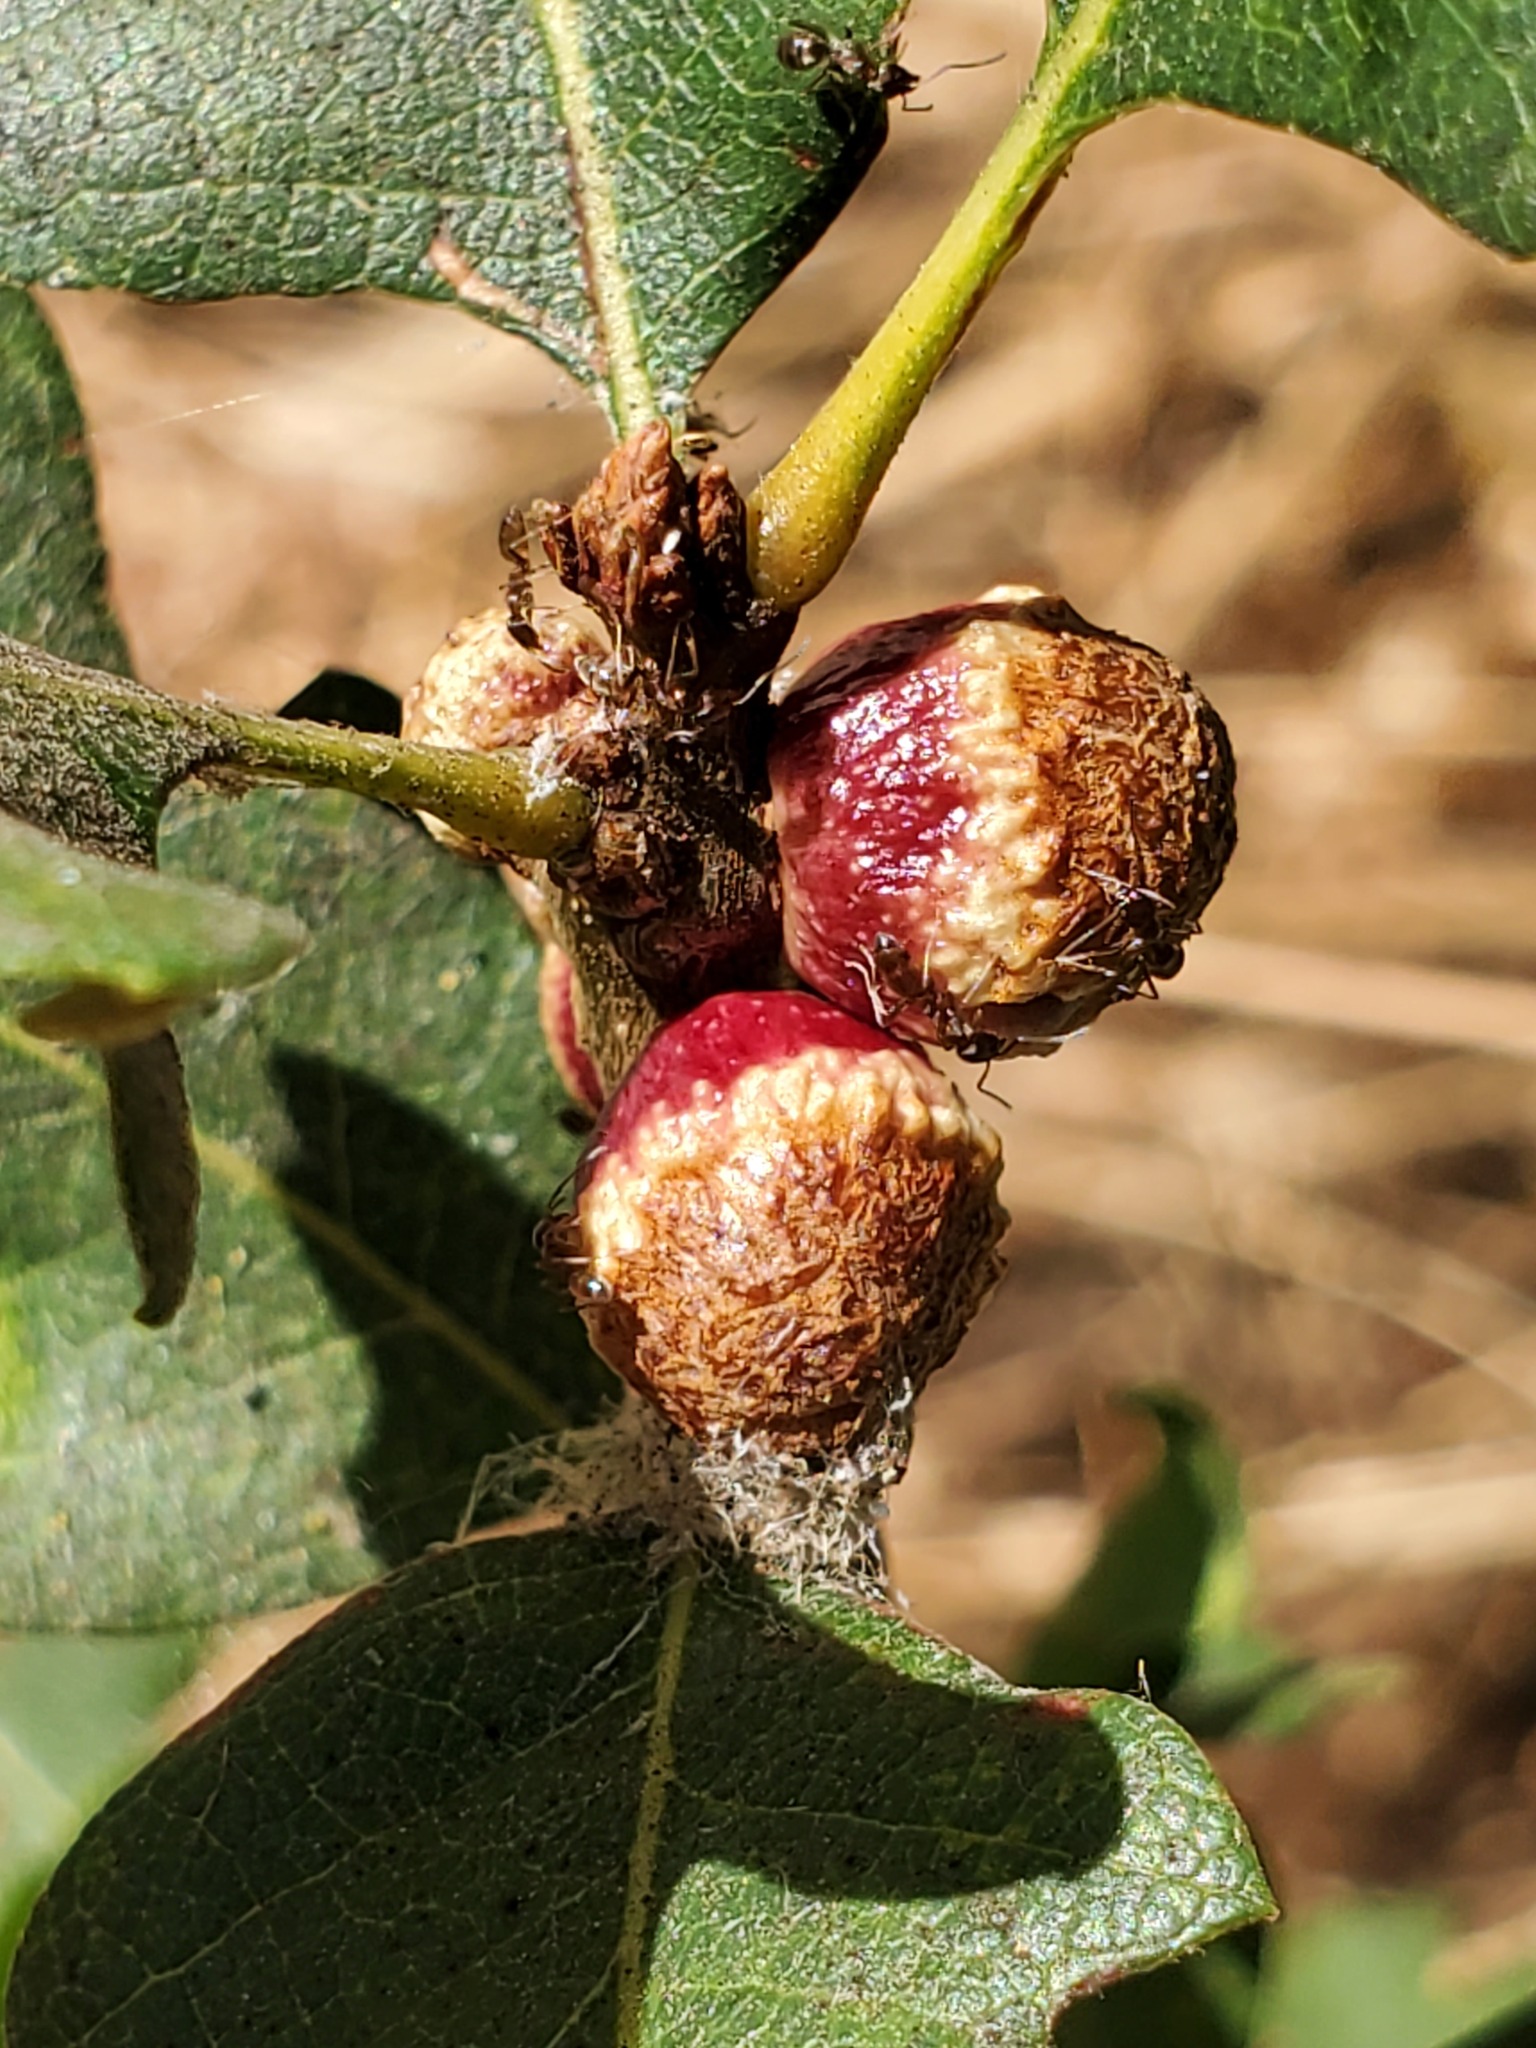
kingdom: Animalia
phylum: Arthropoda
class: Insecta
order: Hymenoptera
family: Cynipidae
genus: Disholcaspis
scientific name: Disholcaspis
